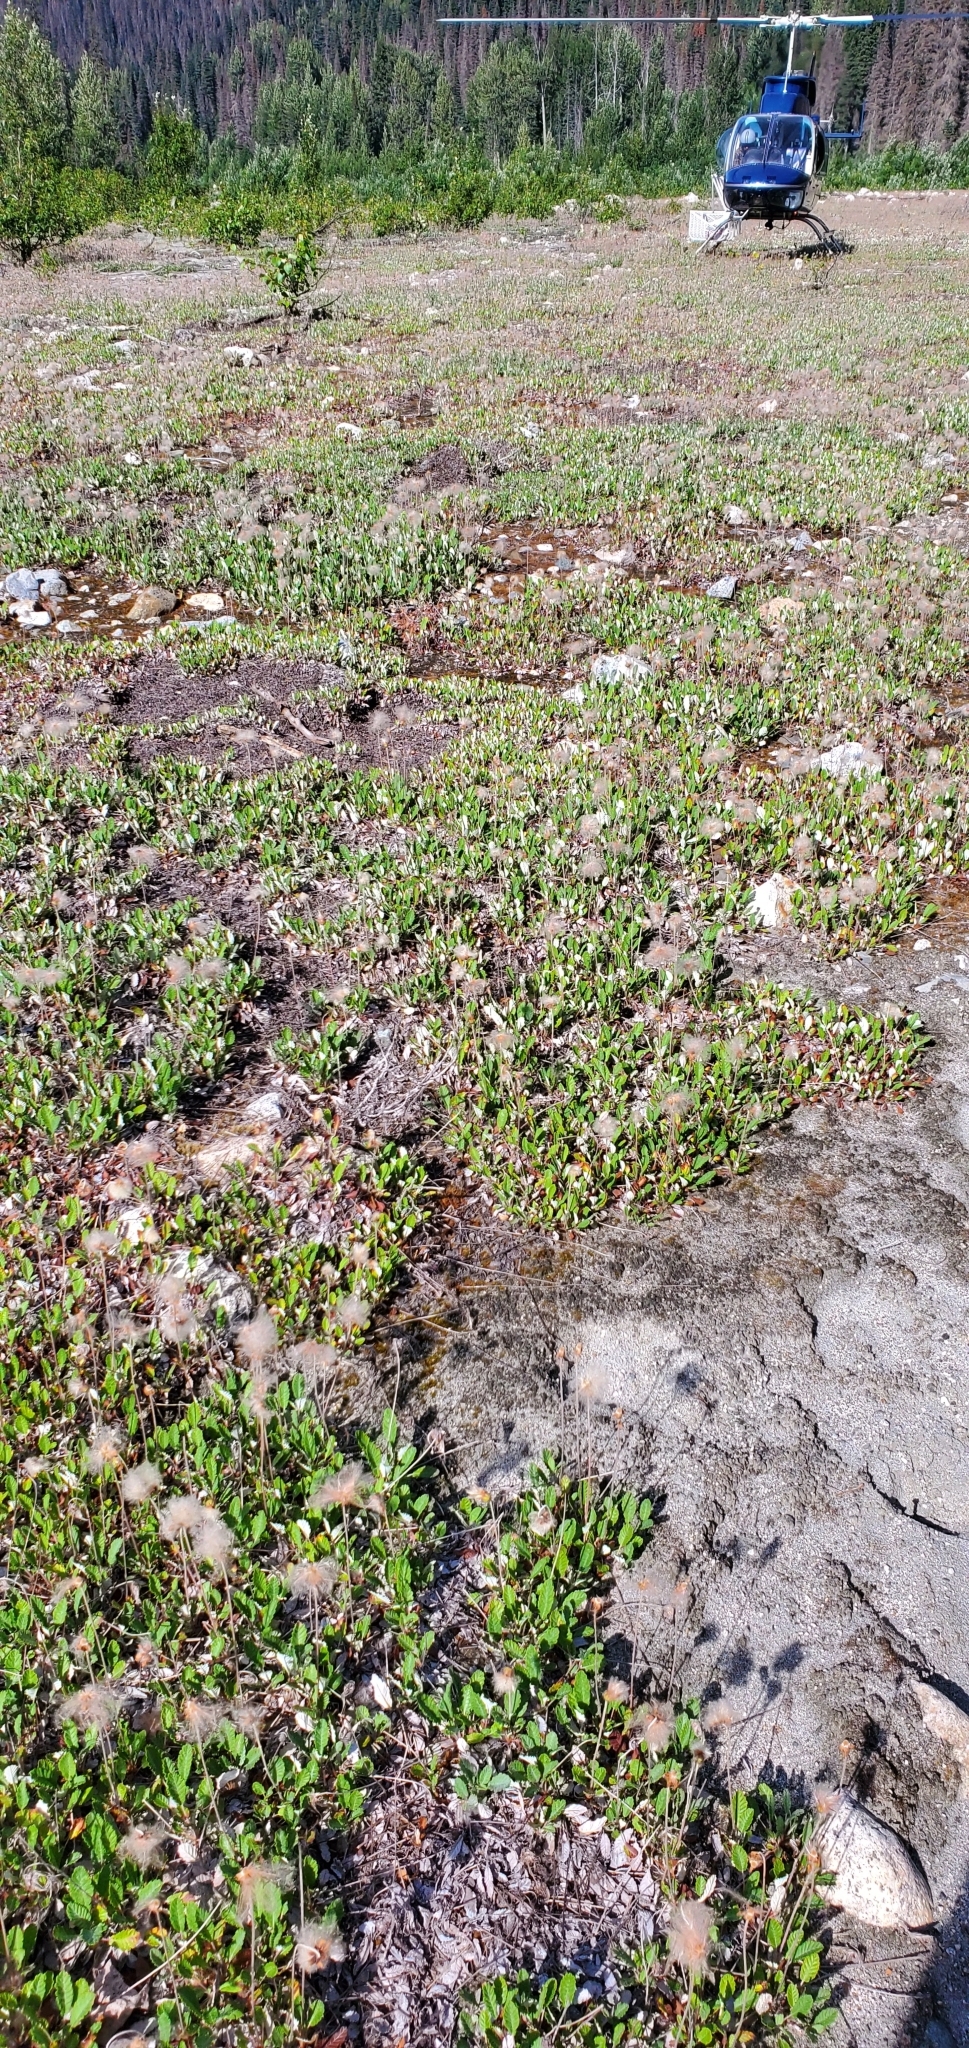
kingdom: Plantae
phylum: Tracheophyta
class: Magnoliopsida
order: Rosales
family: Rosaceae
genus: Dryas
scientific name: Dryas drummondii
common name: Drummond's dryad
